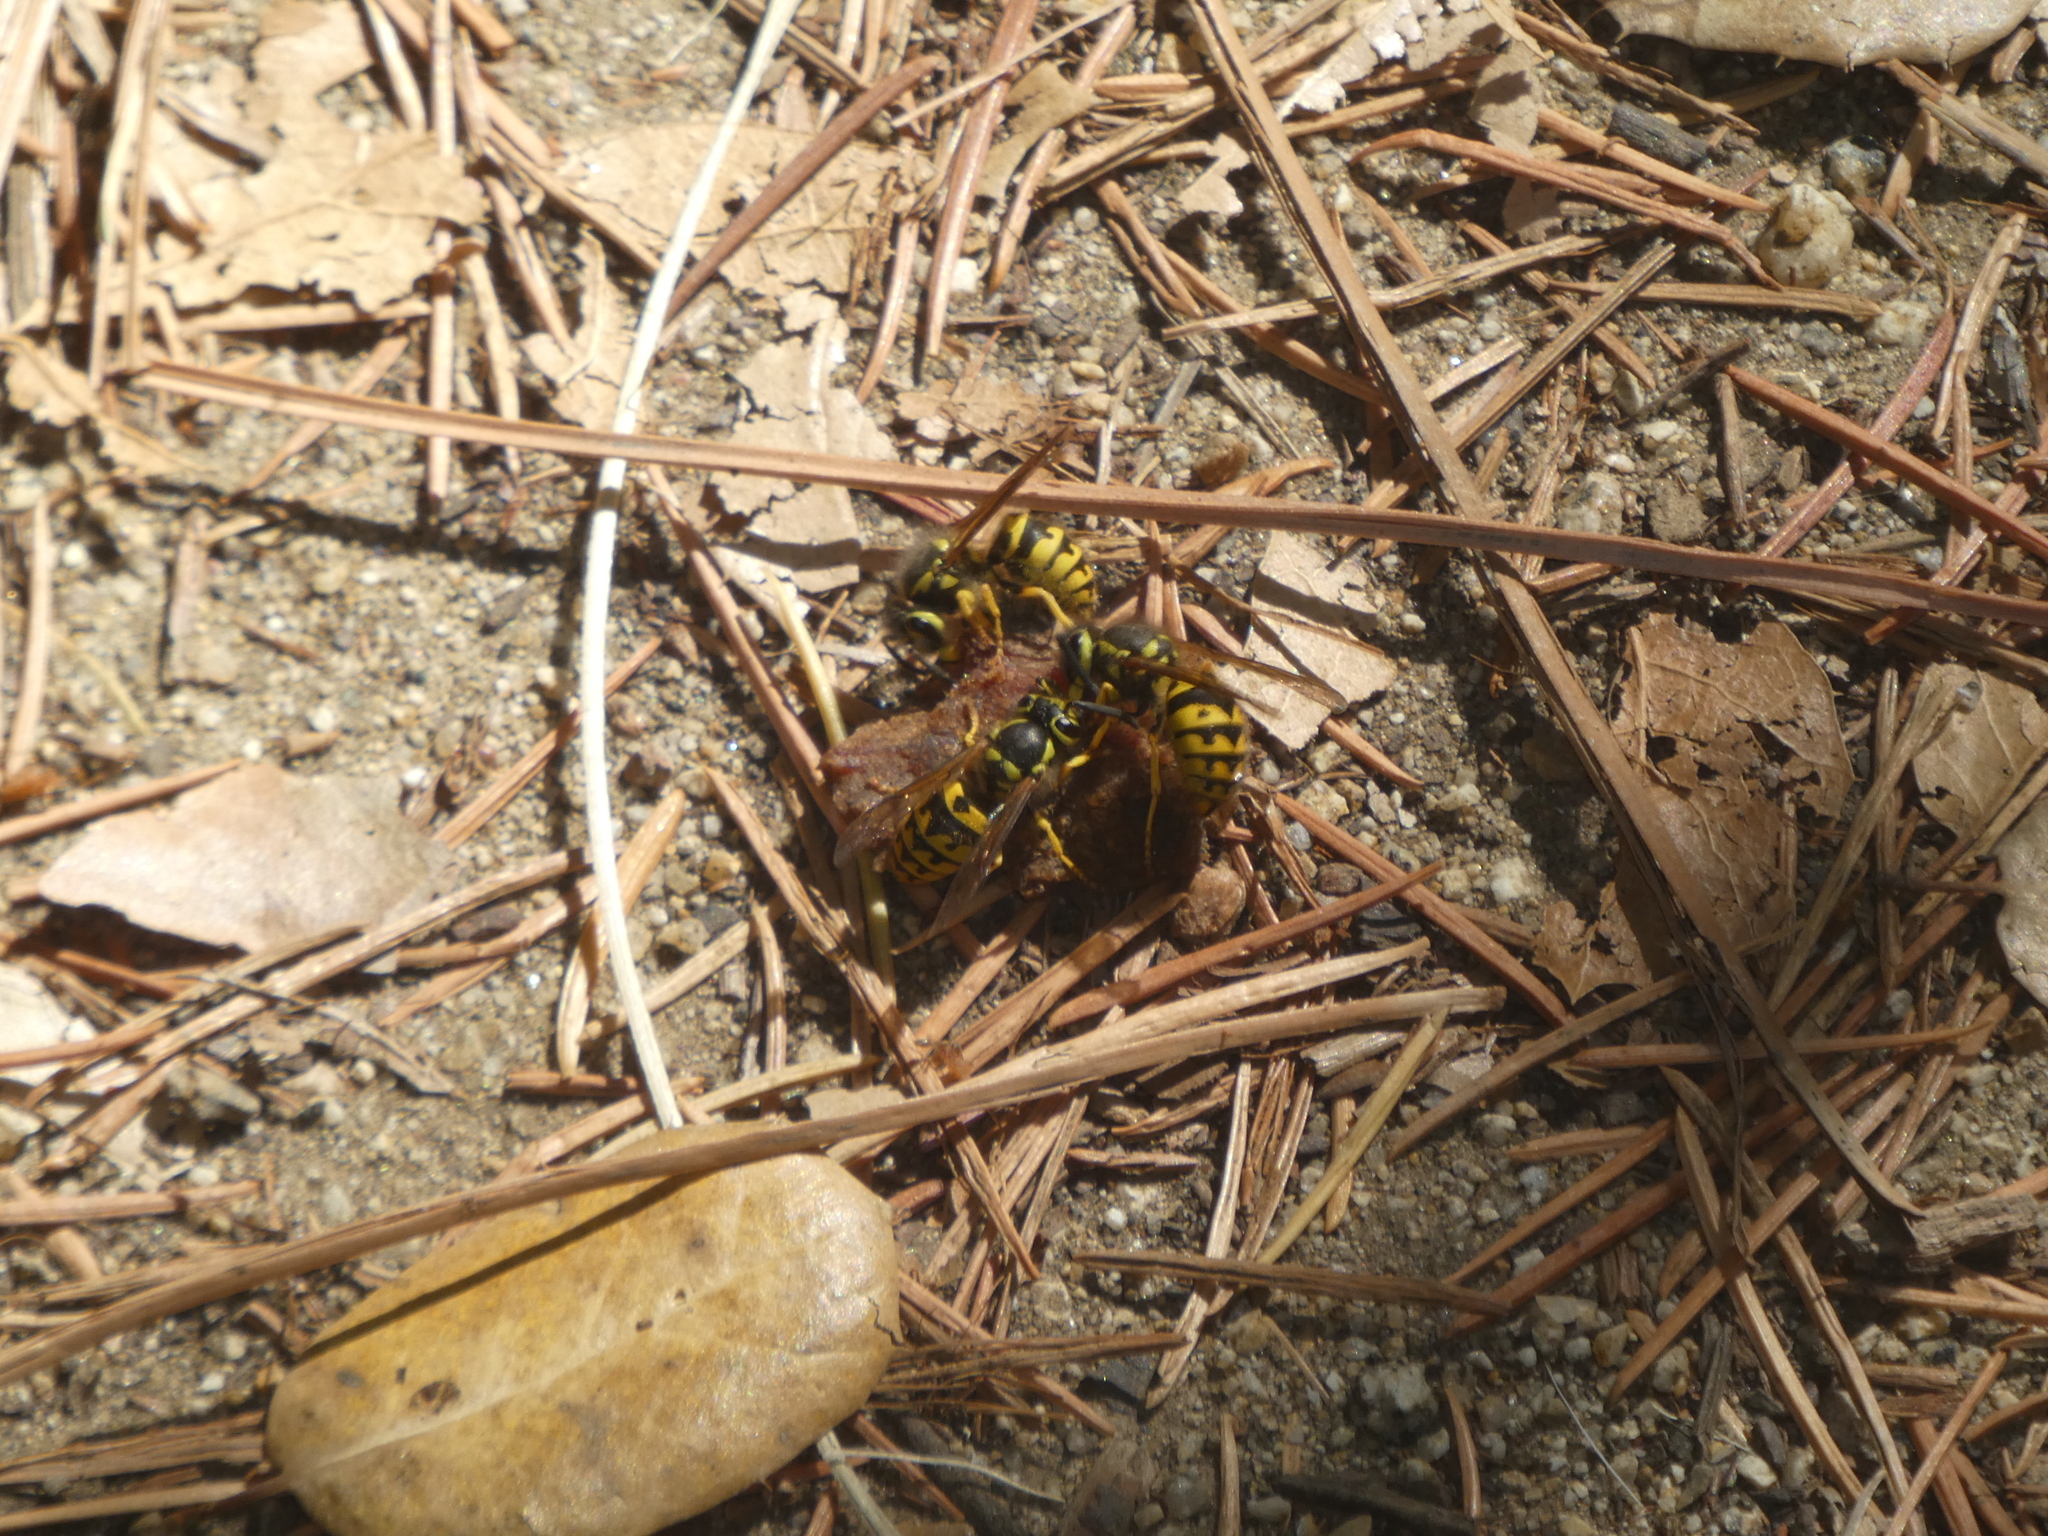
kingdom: Animalia
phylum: Arthropoda
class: Insecta
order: Hymenoptera
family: Vespidae
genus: Vespula
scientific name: Vespula pensylvanica
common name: Western yellowjacket
